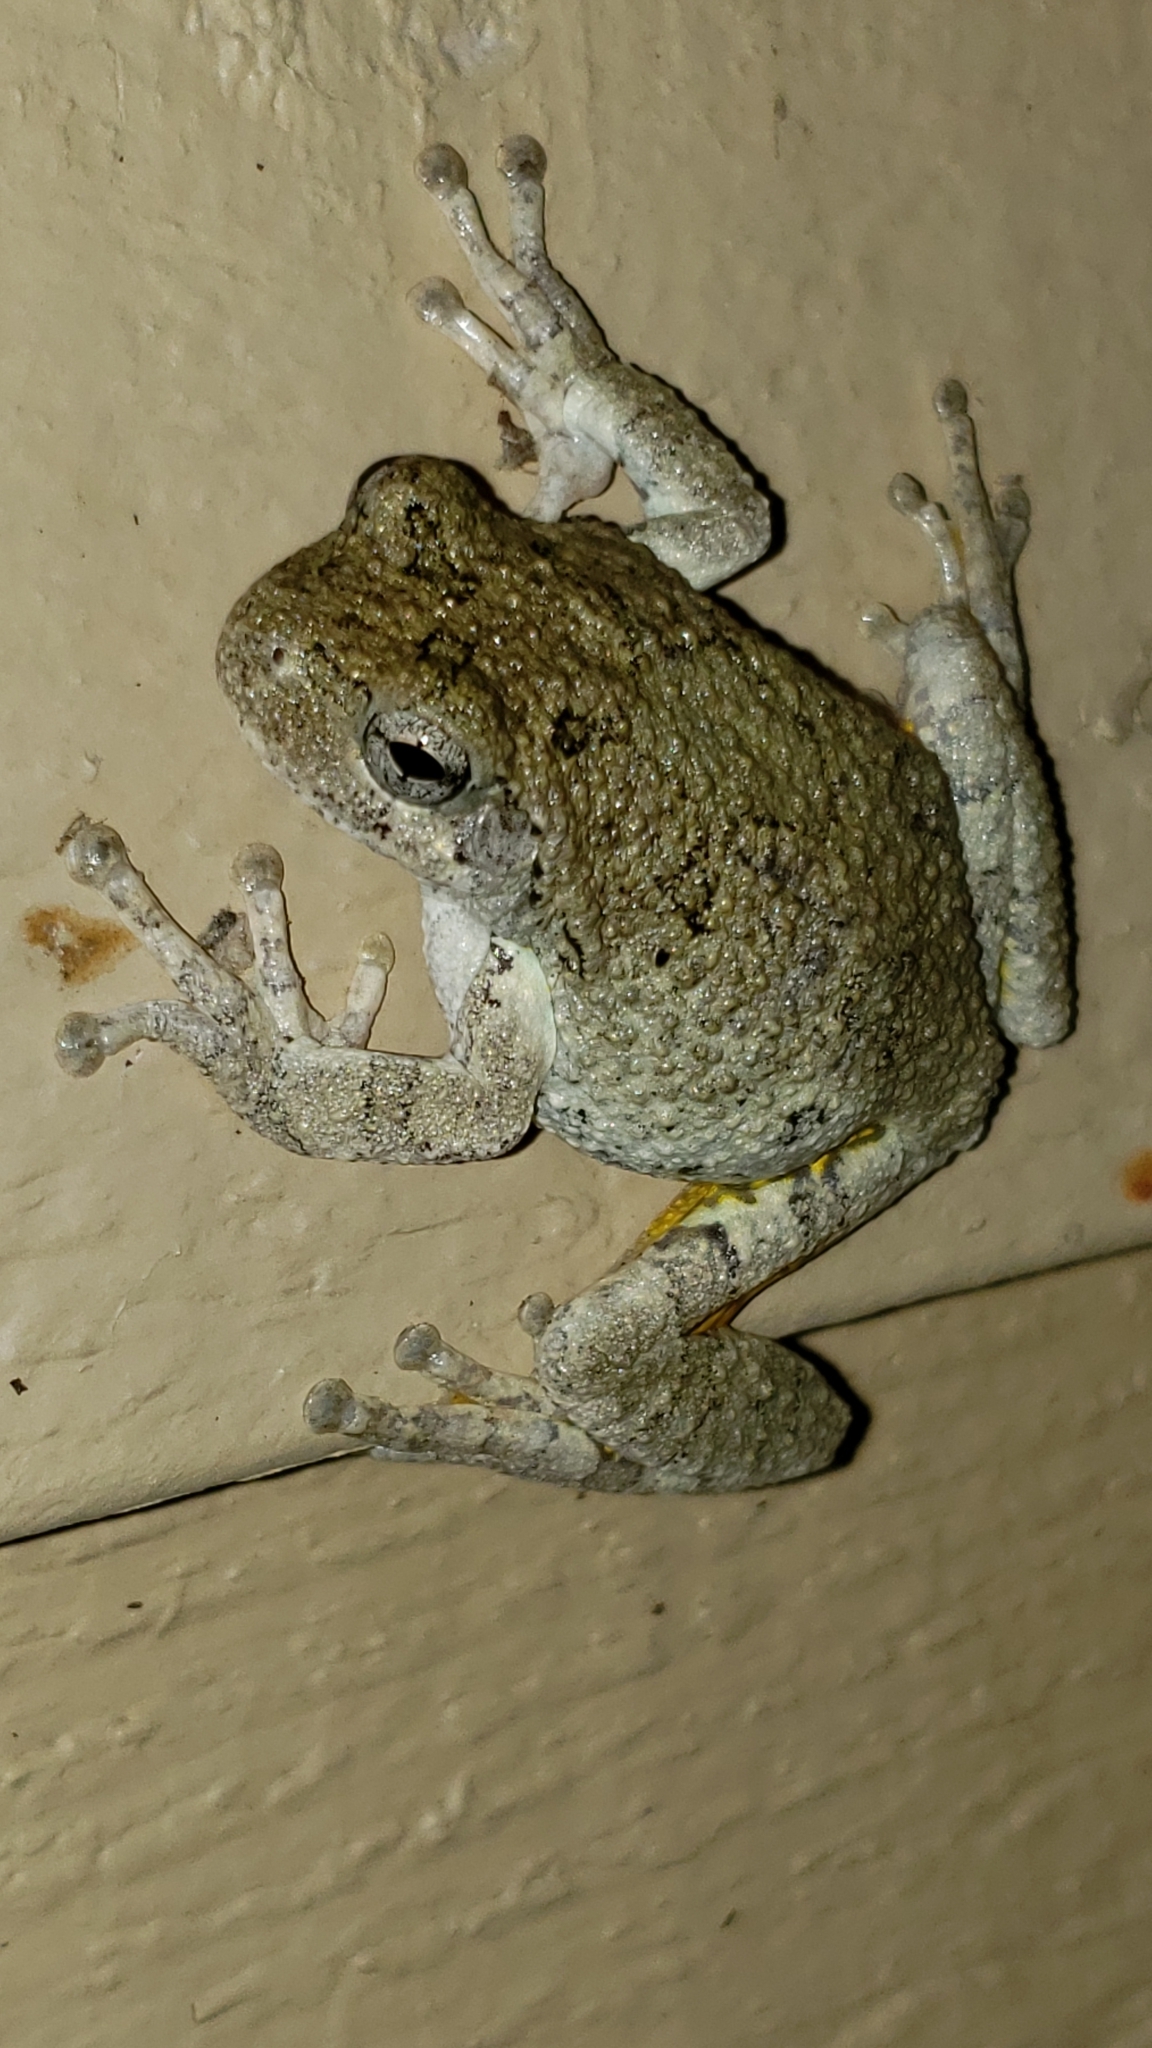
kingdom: Animalia
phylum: Chordata
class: Amphibia
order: Anura
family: Hylidae
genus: Hyla
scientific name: Hyla
